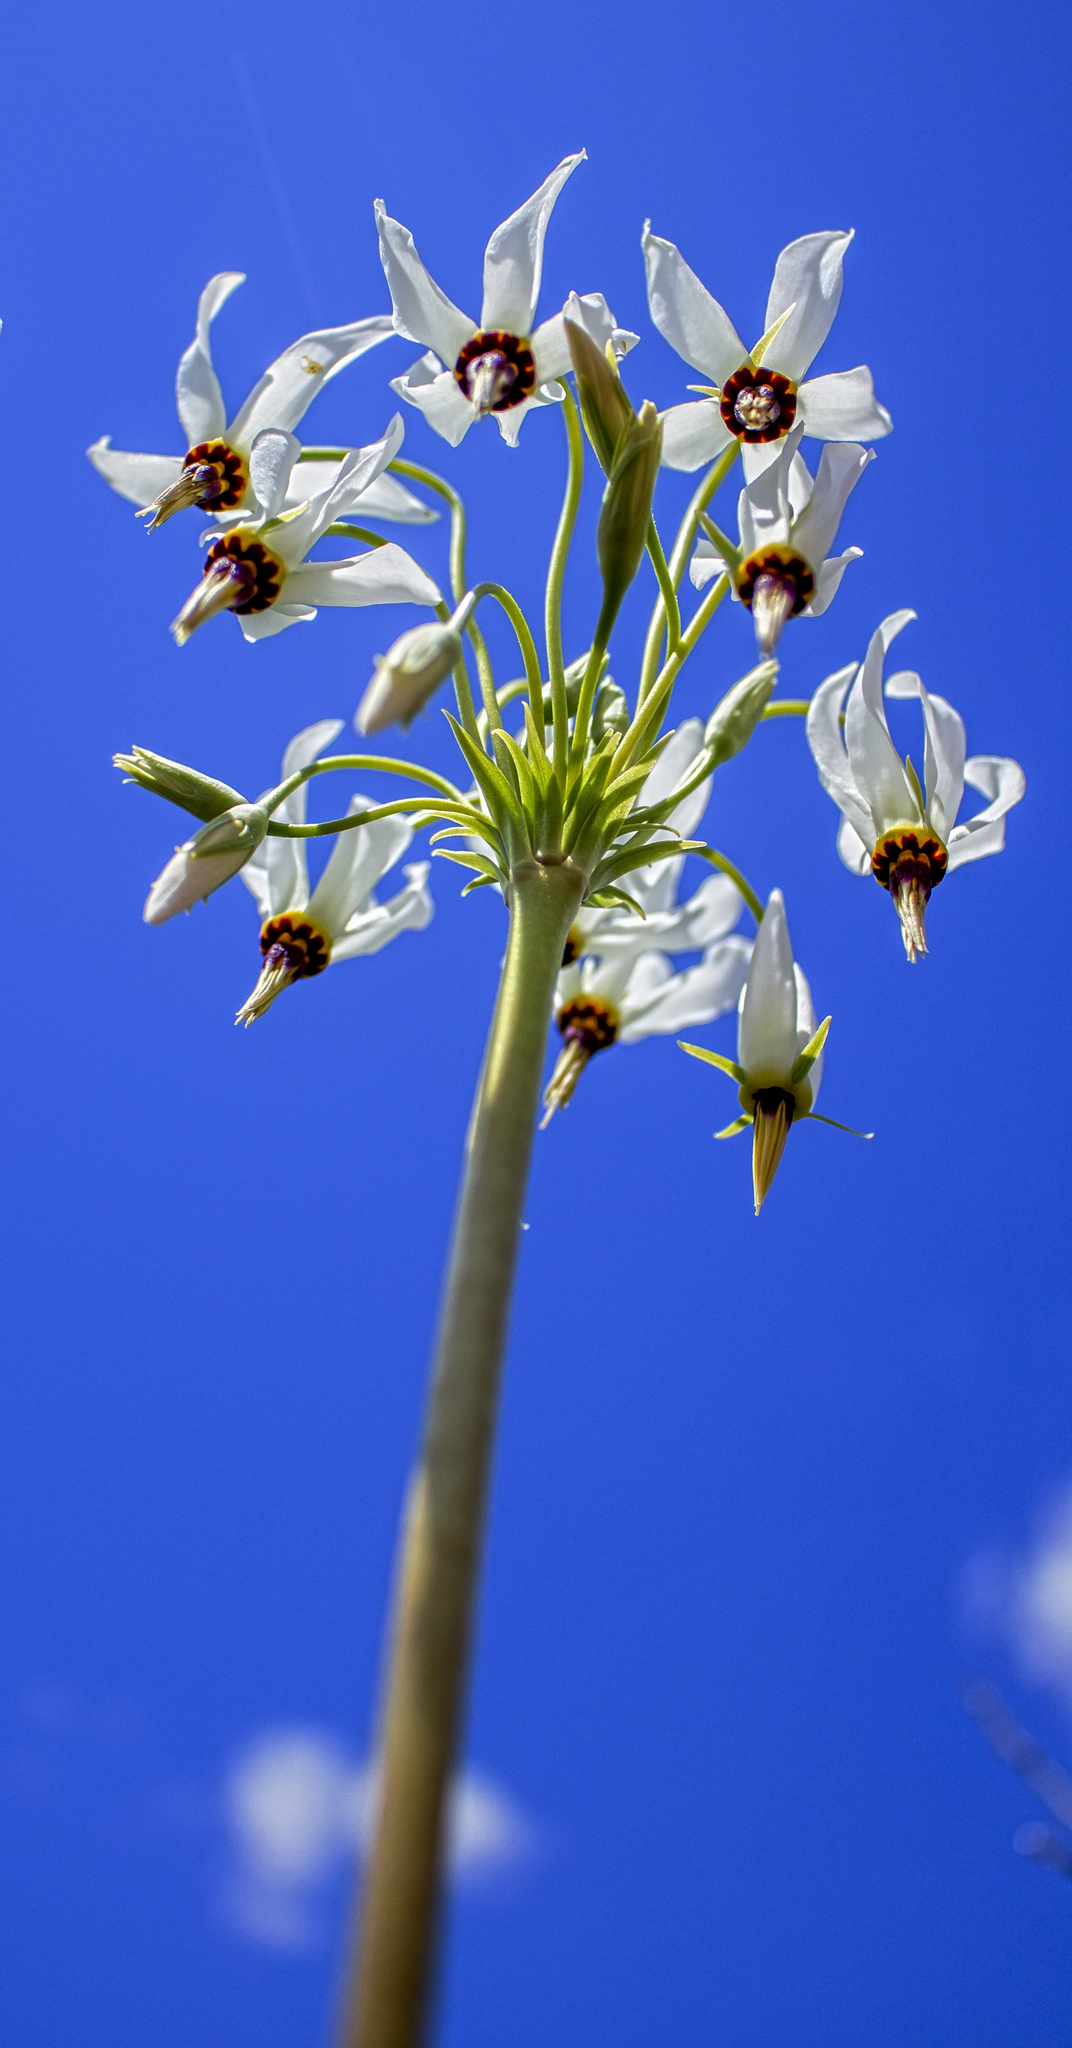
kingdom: Plantae
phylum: Tracheophyta
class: Magnoliopsida
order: Ericales
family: Primulaceae
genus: Dodecatheon
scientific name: Dodecatheon meadia
